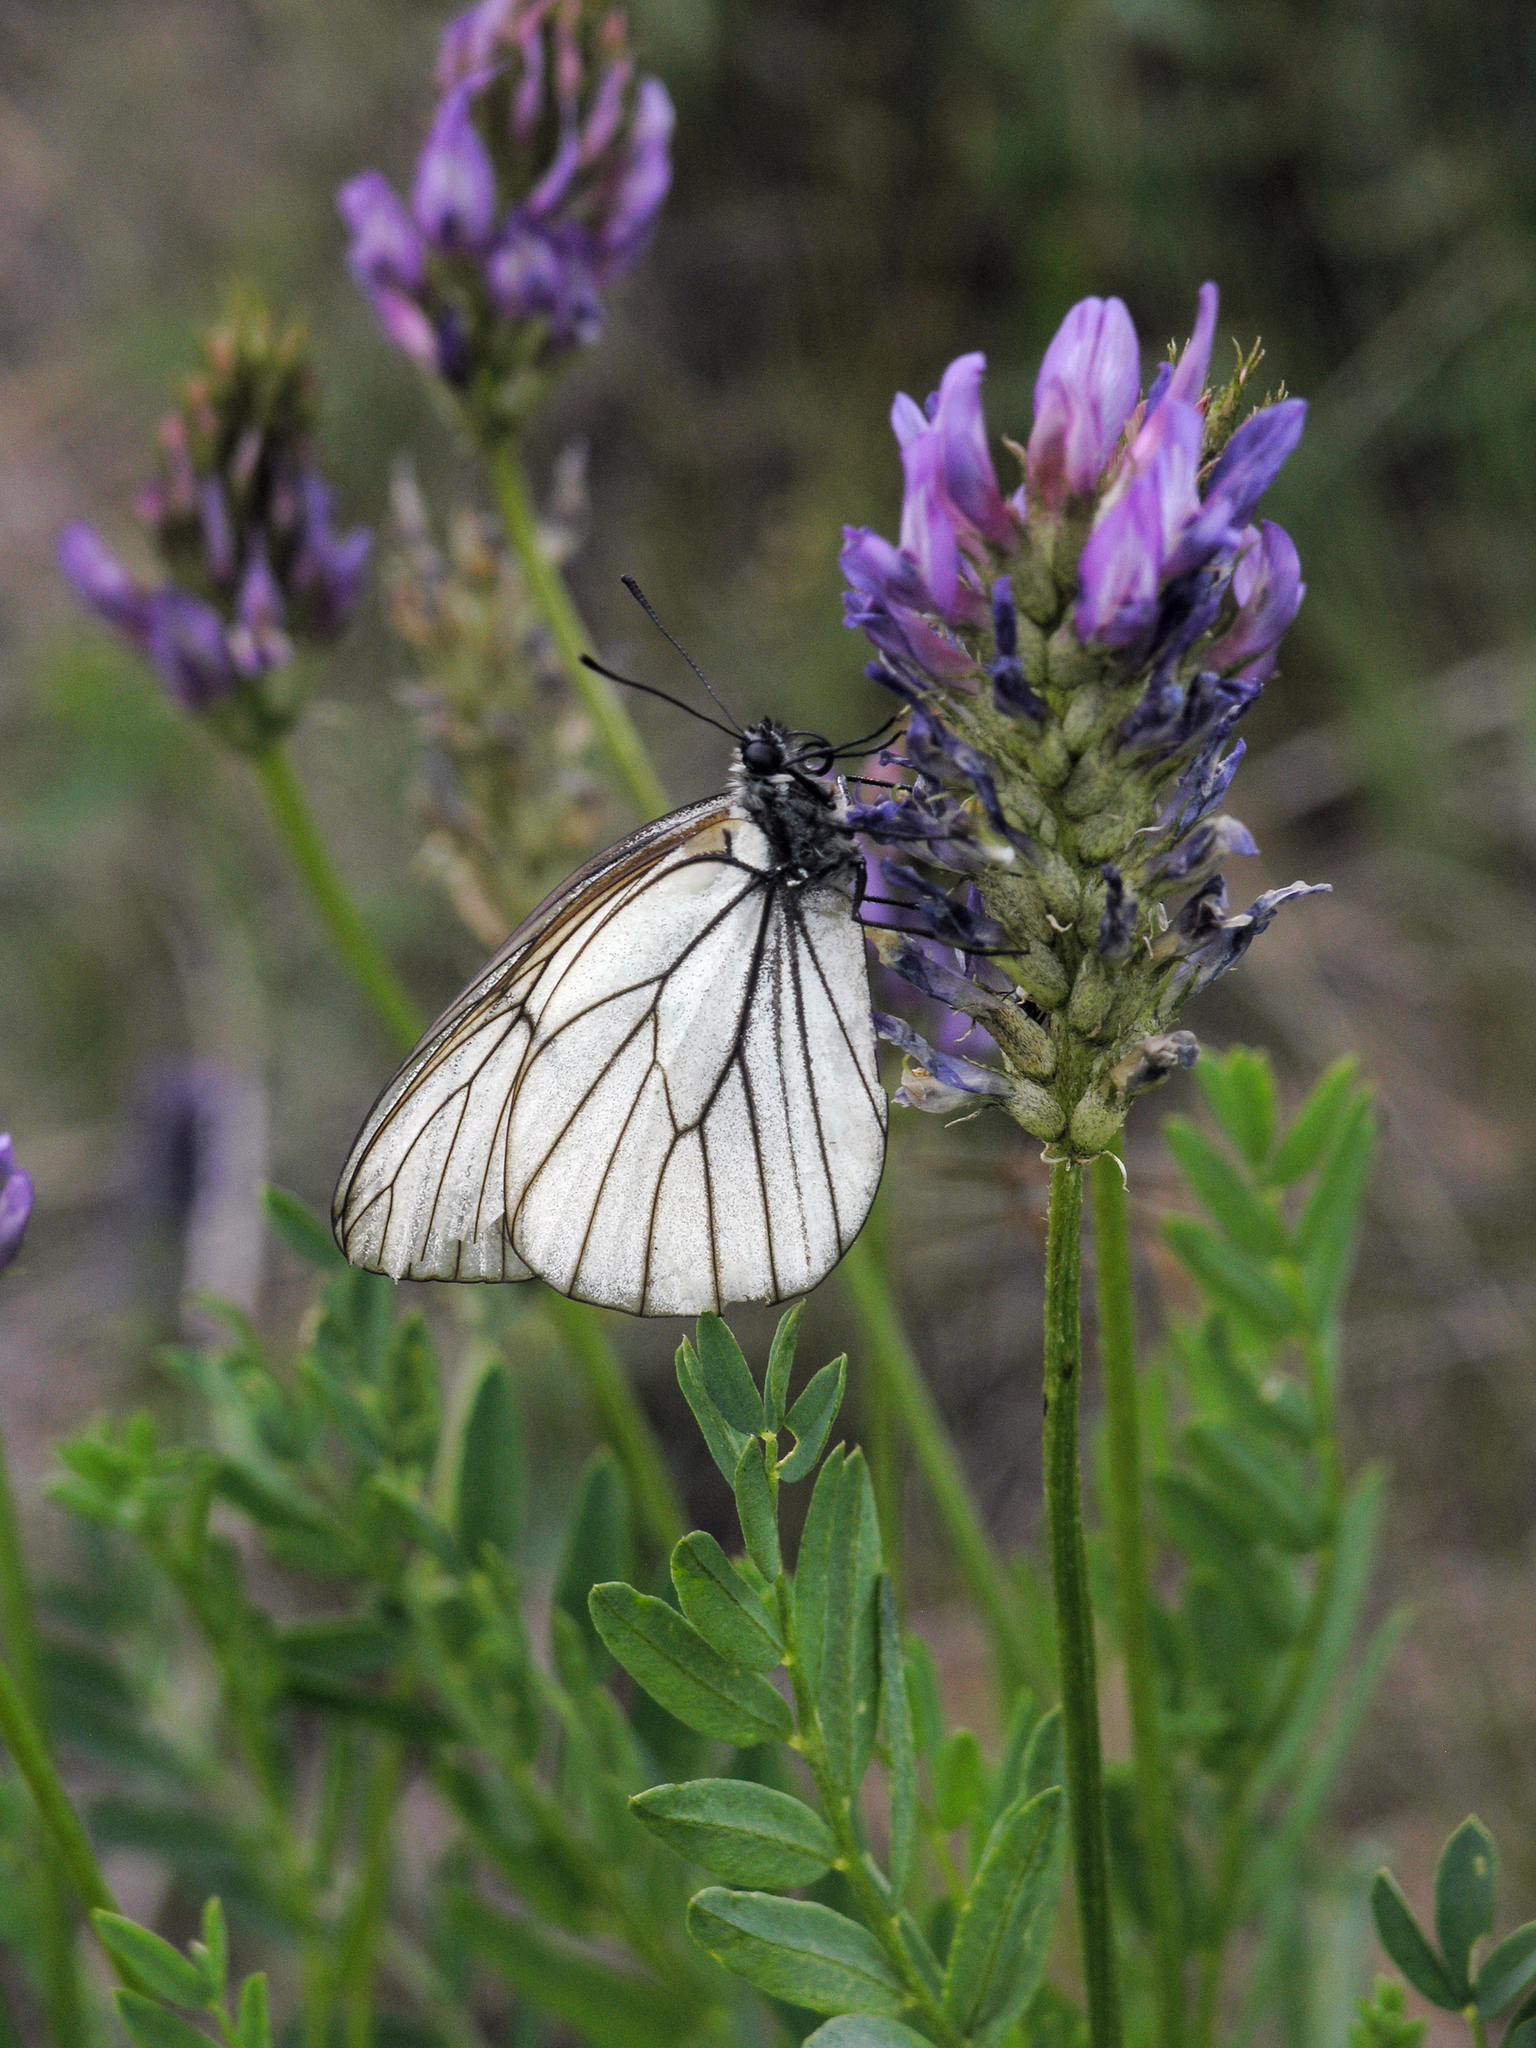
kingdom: Plantae
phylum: Tracheophyta
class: Magnoliopsida
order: Fabales
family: Fabaceae
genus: Astragalus
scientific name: Astragalus laxmannii
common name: Laxmann's milk-vetch
